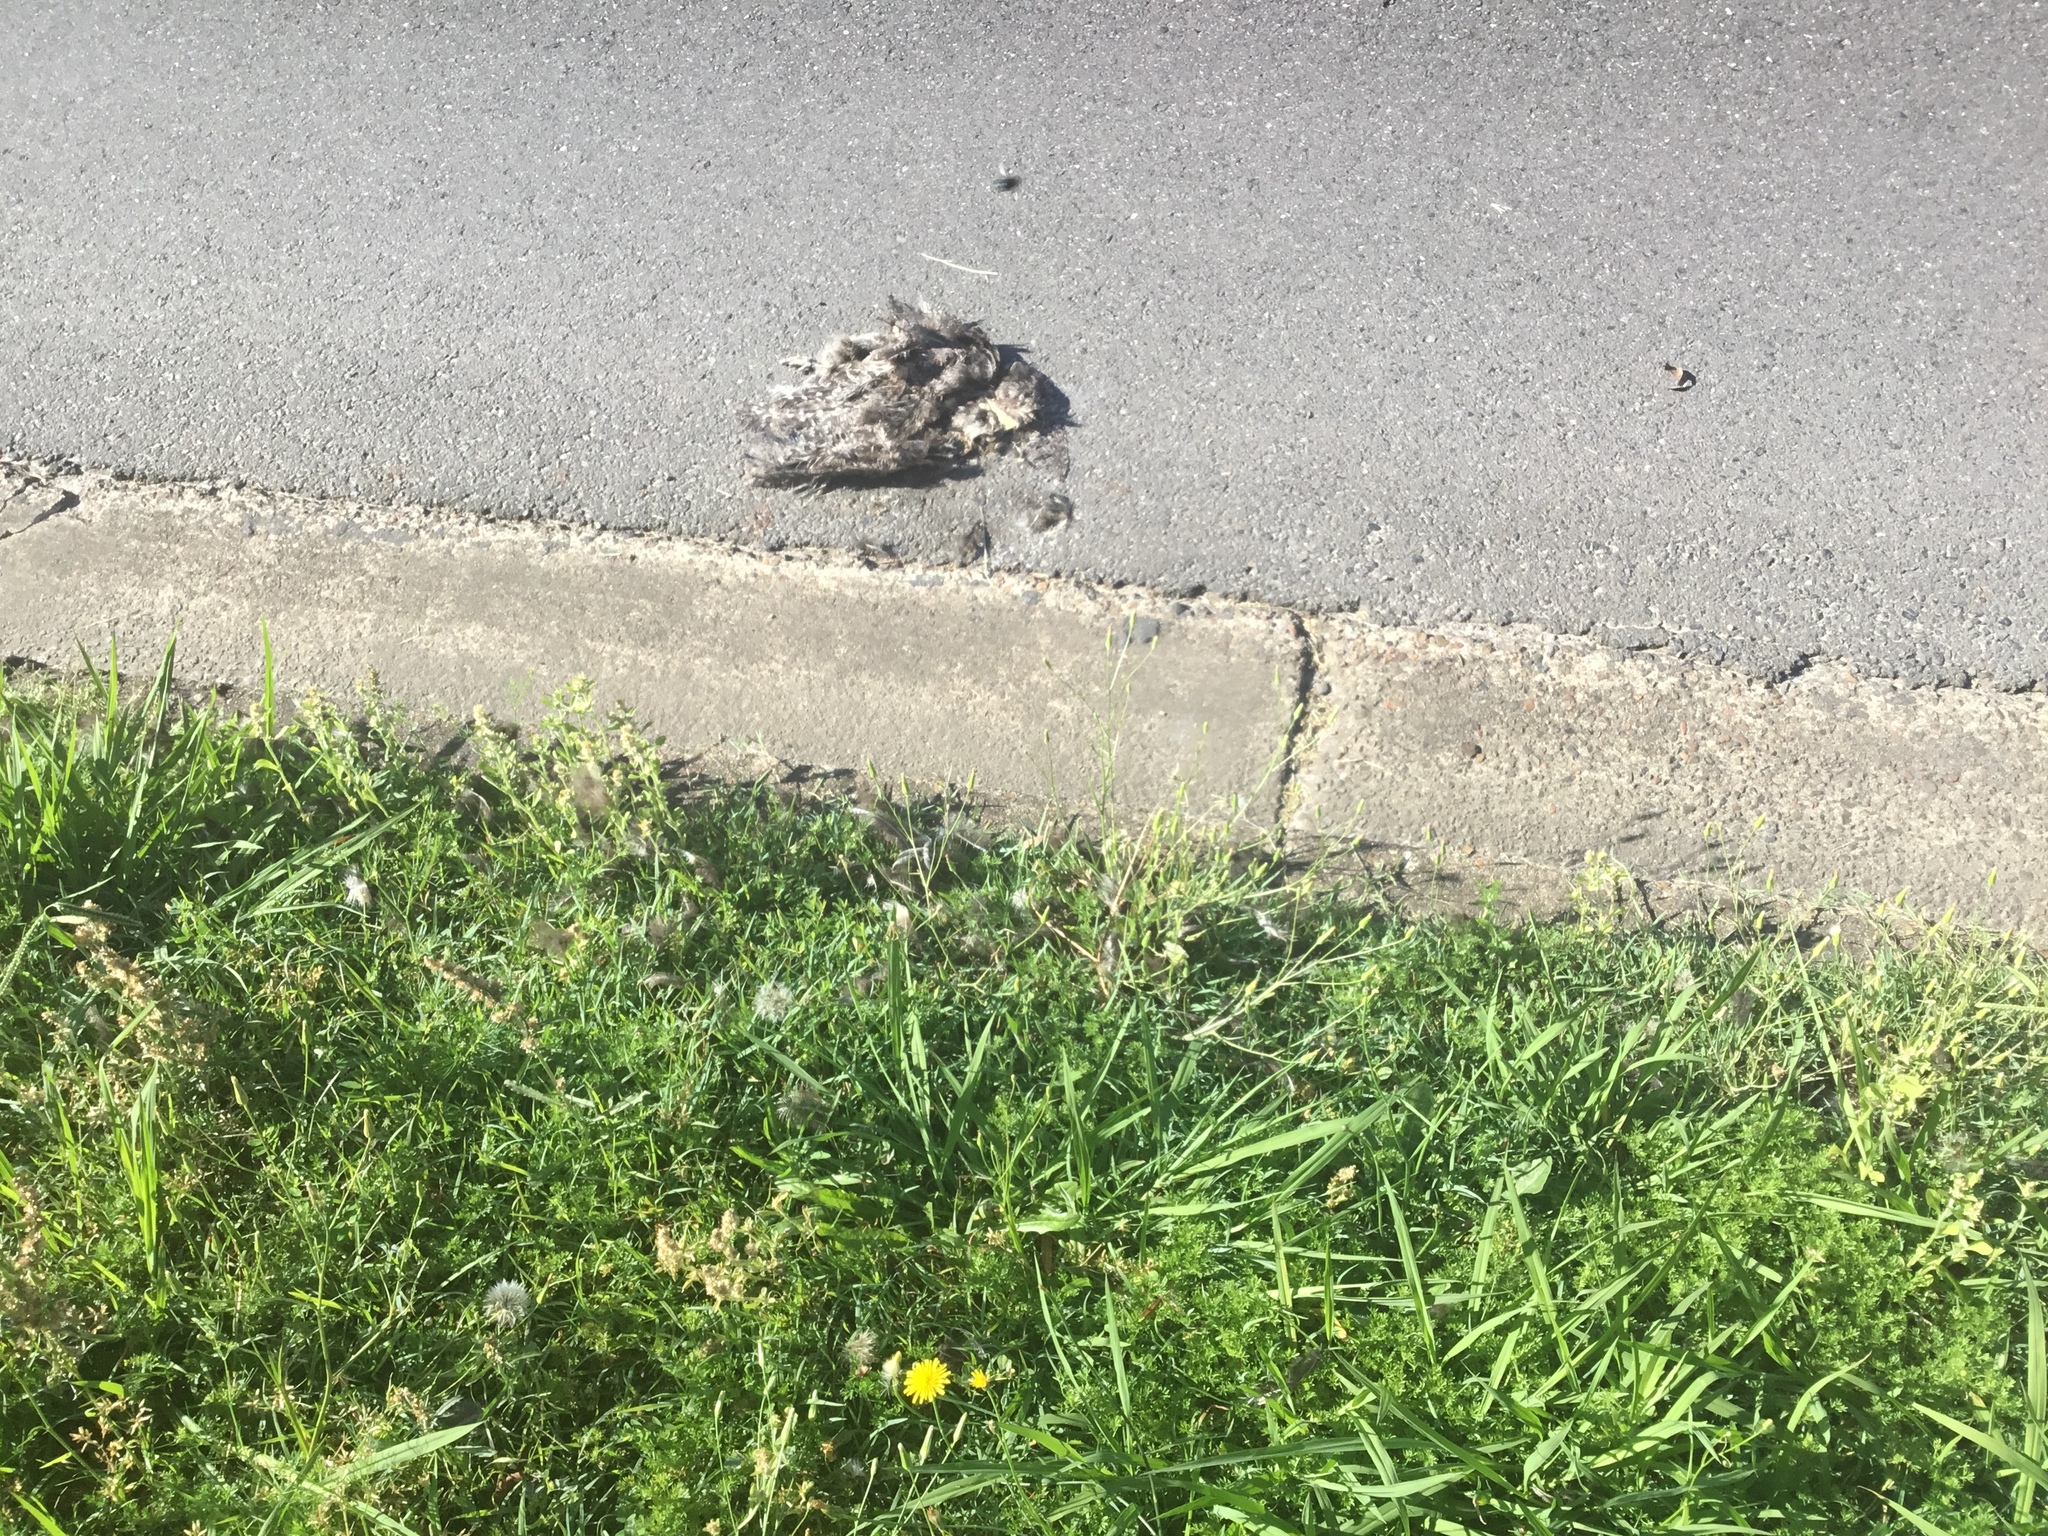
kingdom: Animalia
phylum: Chordata
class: Aves
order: Caprimulgiformes
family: Podargidae
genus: Podargus
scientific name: Podargus strigoides
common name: Tawny frogmouth
